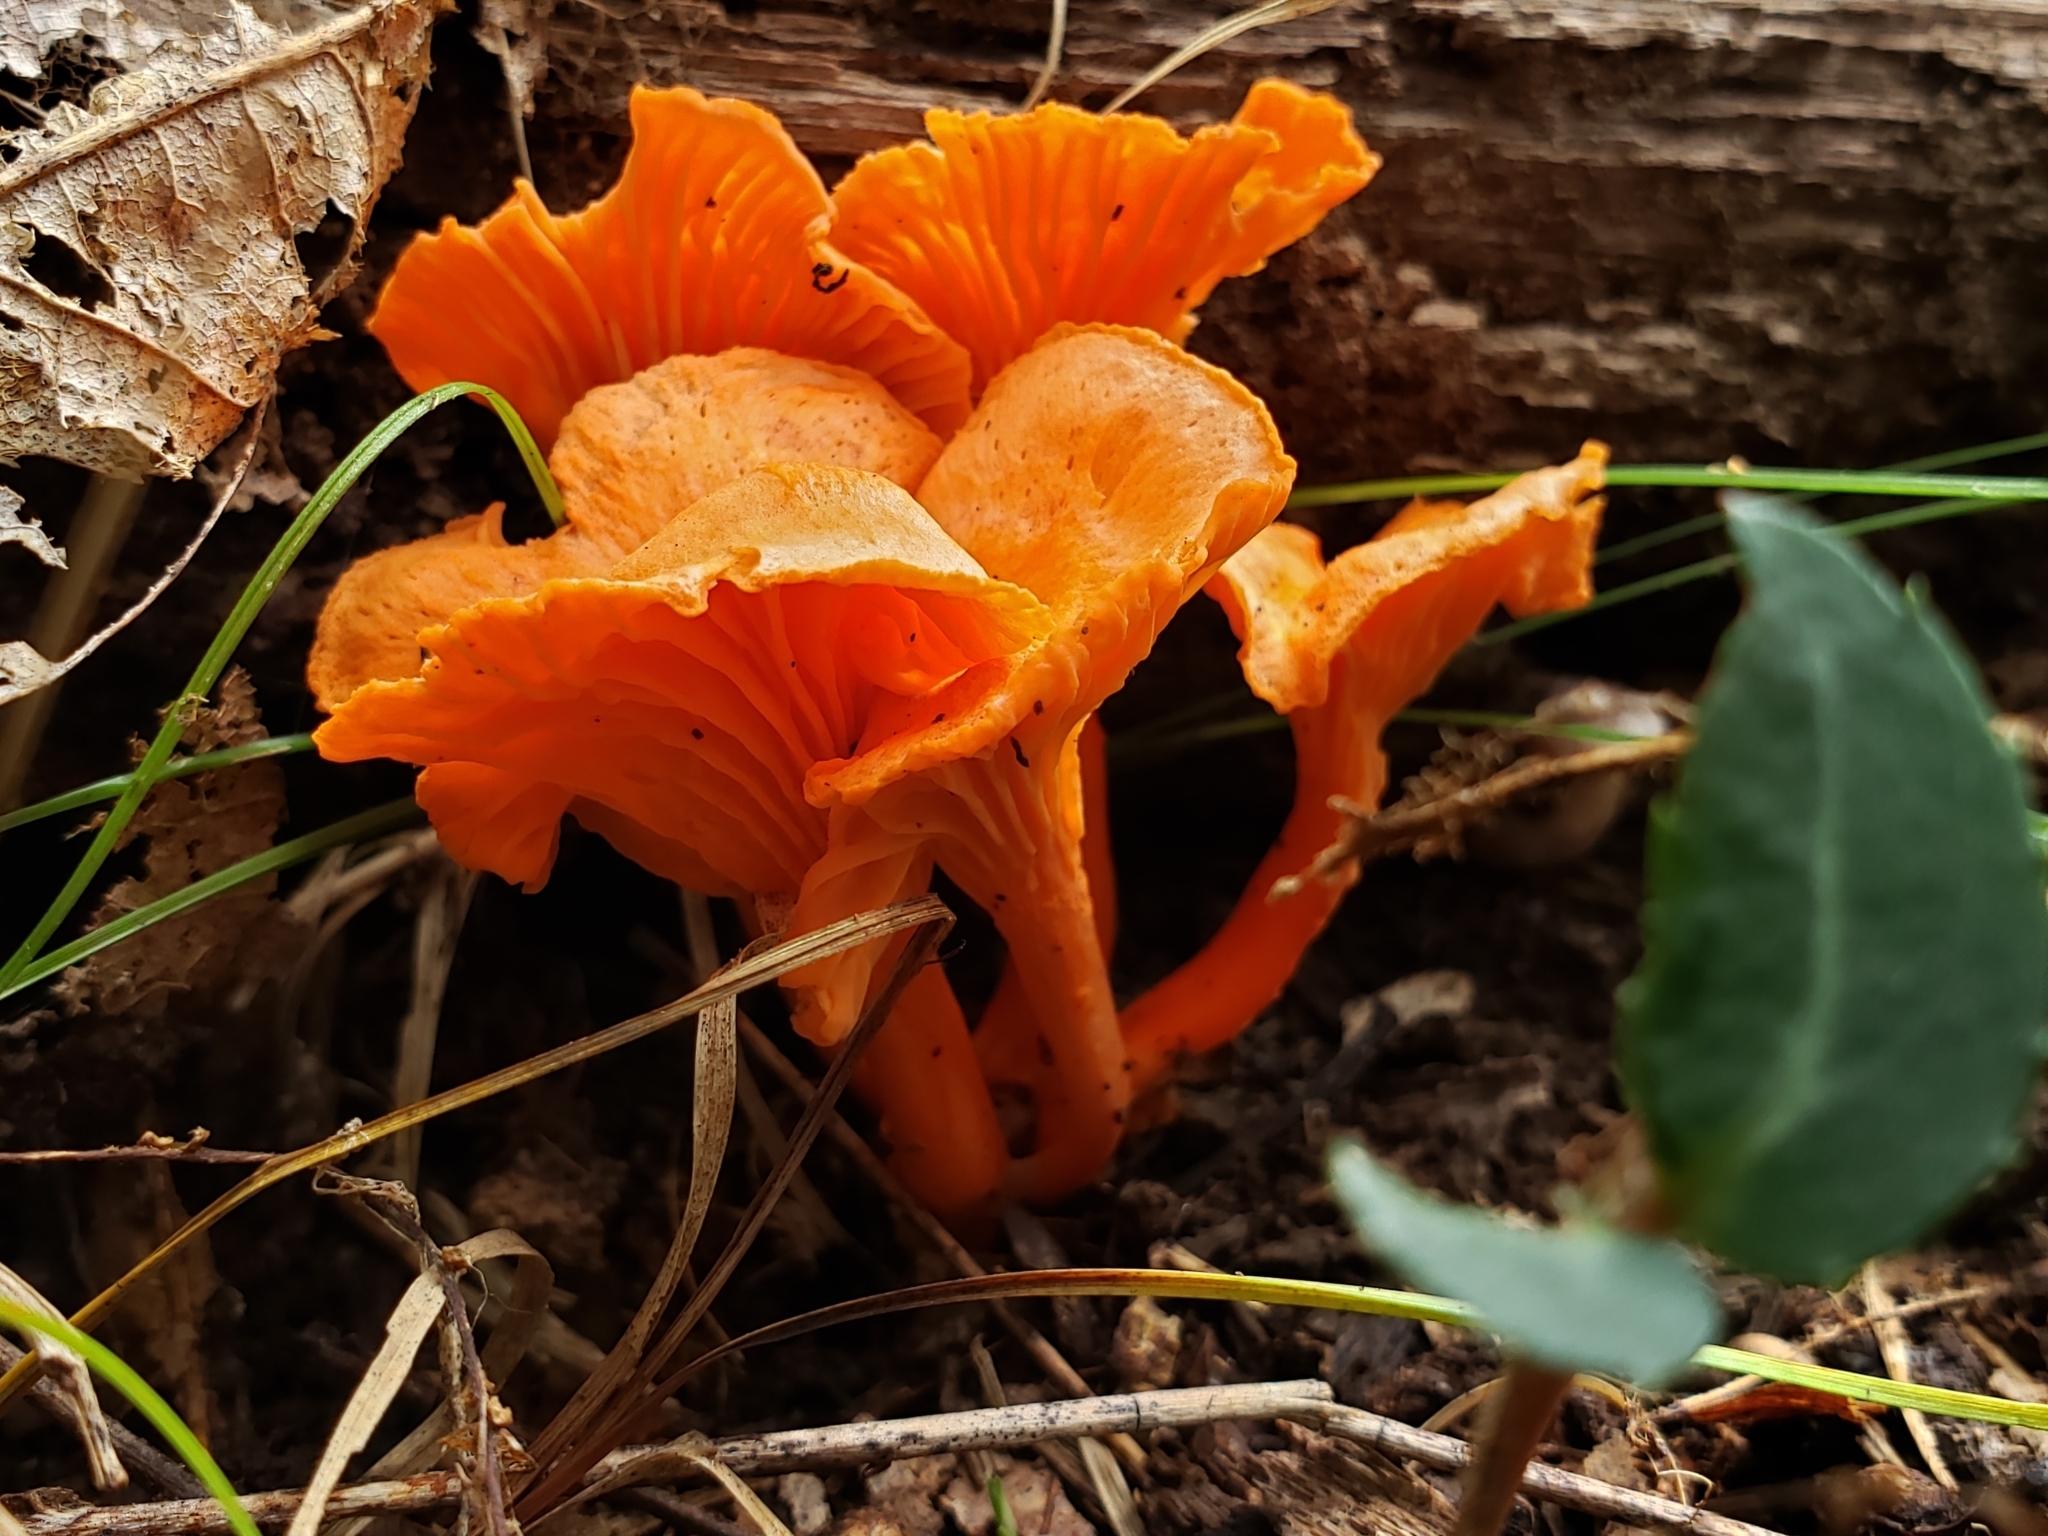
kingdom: Fungi
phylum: Basidiomycota
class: Agaricomycetes
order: Cantharellales
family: Hydnaceae
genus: Cantharellus
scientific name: Cantharellus cinnabarinus
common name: Cinnabar chanterelle
